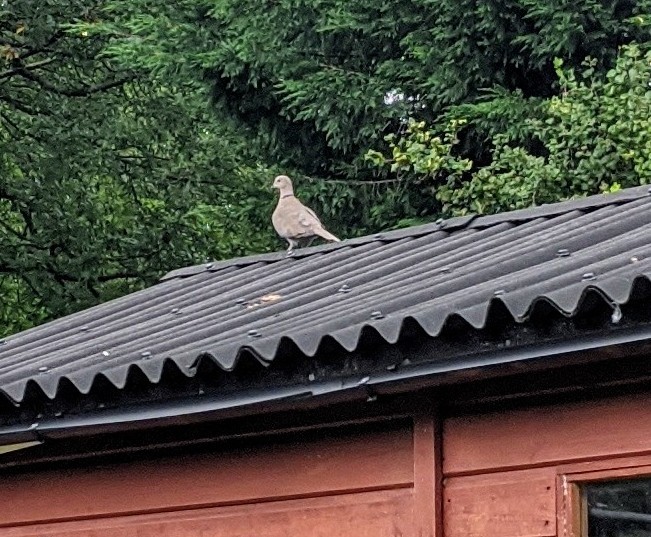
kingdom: Animalia
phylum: Chordata
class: Aves
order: Columbiformes
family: Columbidae
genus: Streptopelia
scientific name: Streptopelia decaocto
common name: Eurasian collared dove
